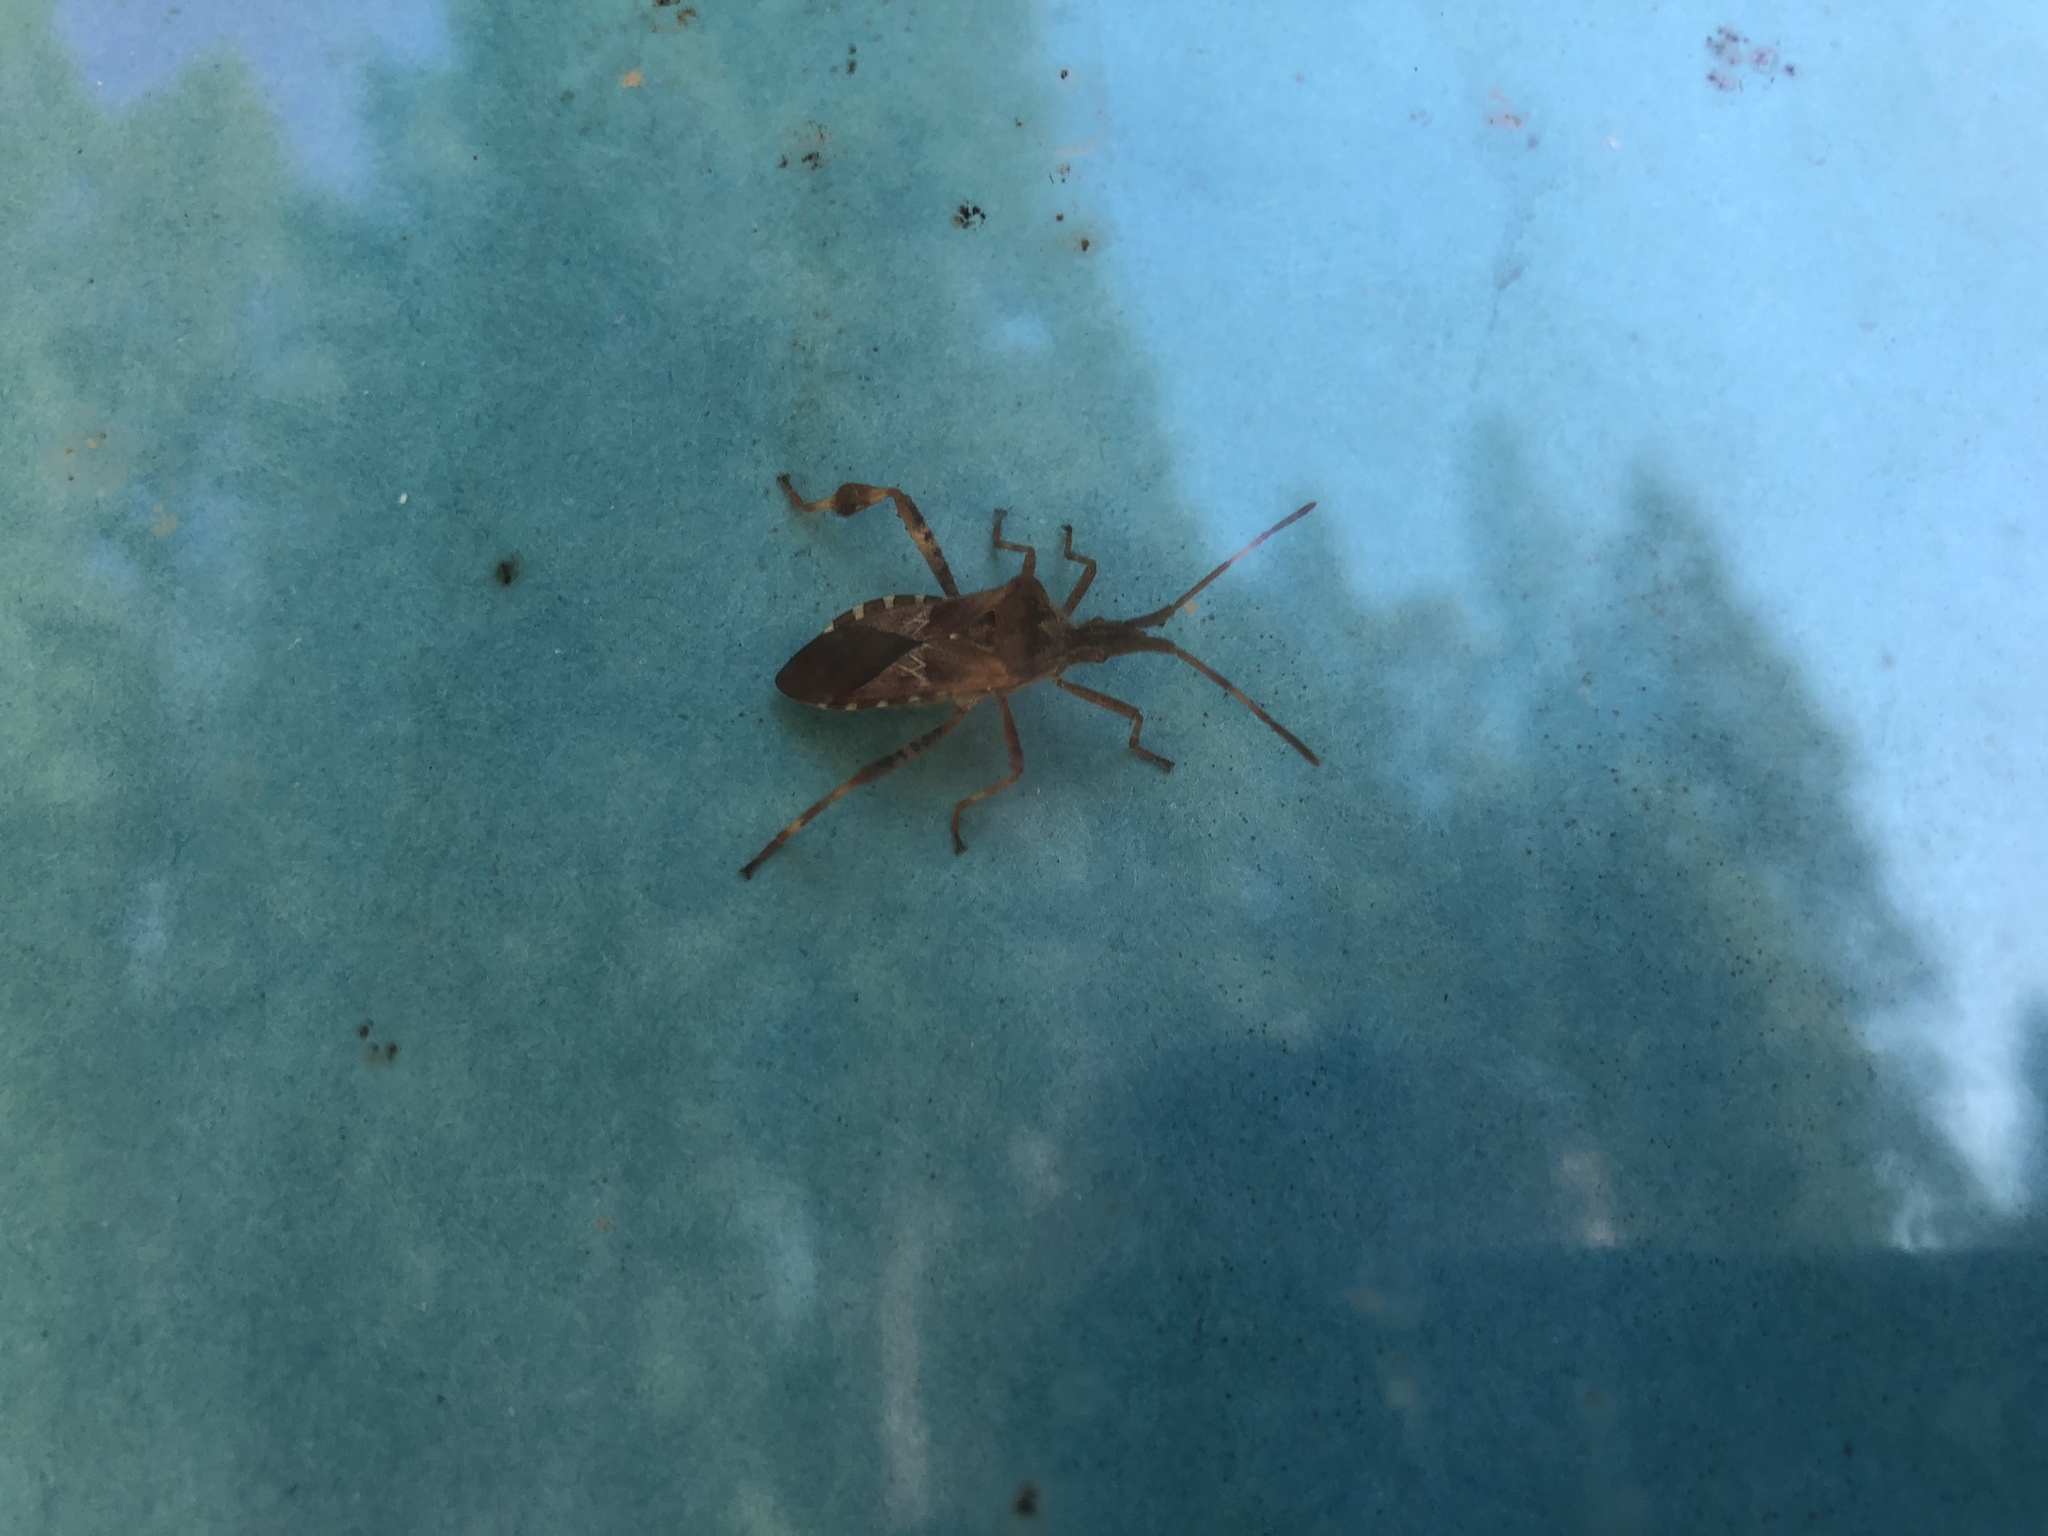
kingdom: Animalia
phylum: Arthropoda
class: Insecta
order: Hemiptera
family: Coreidae
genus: Leptoglossus
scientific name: Leptoglossus occidentalis
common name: Western conifer-seed bug
